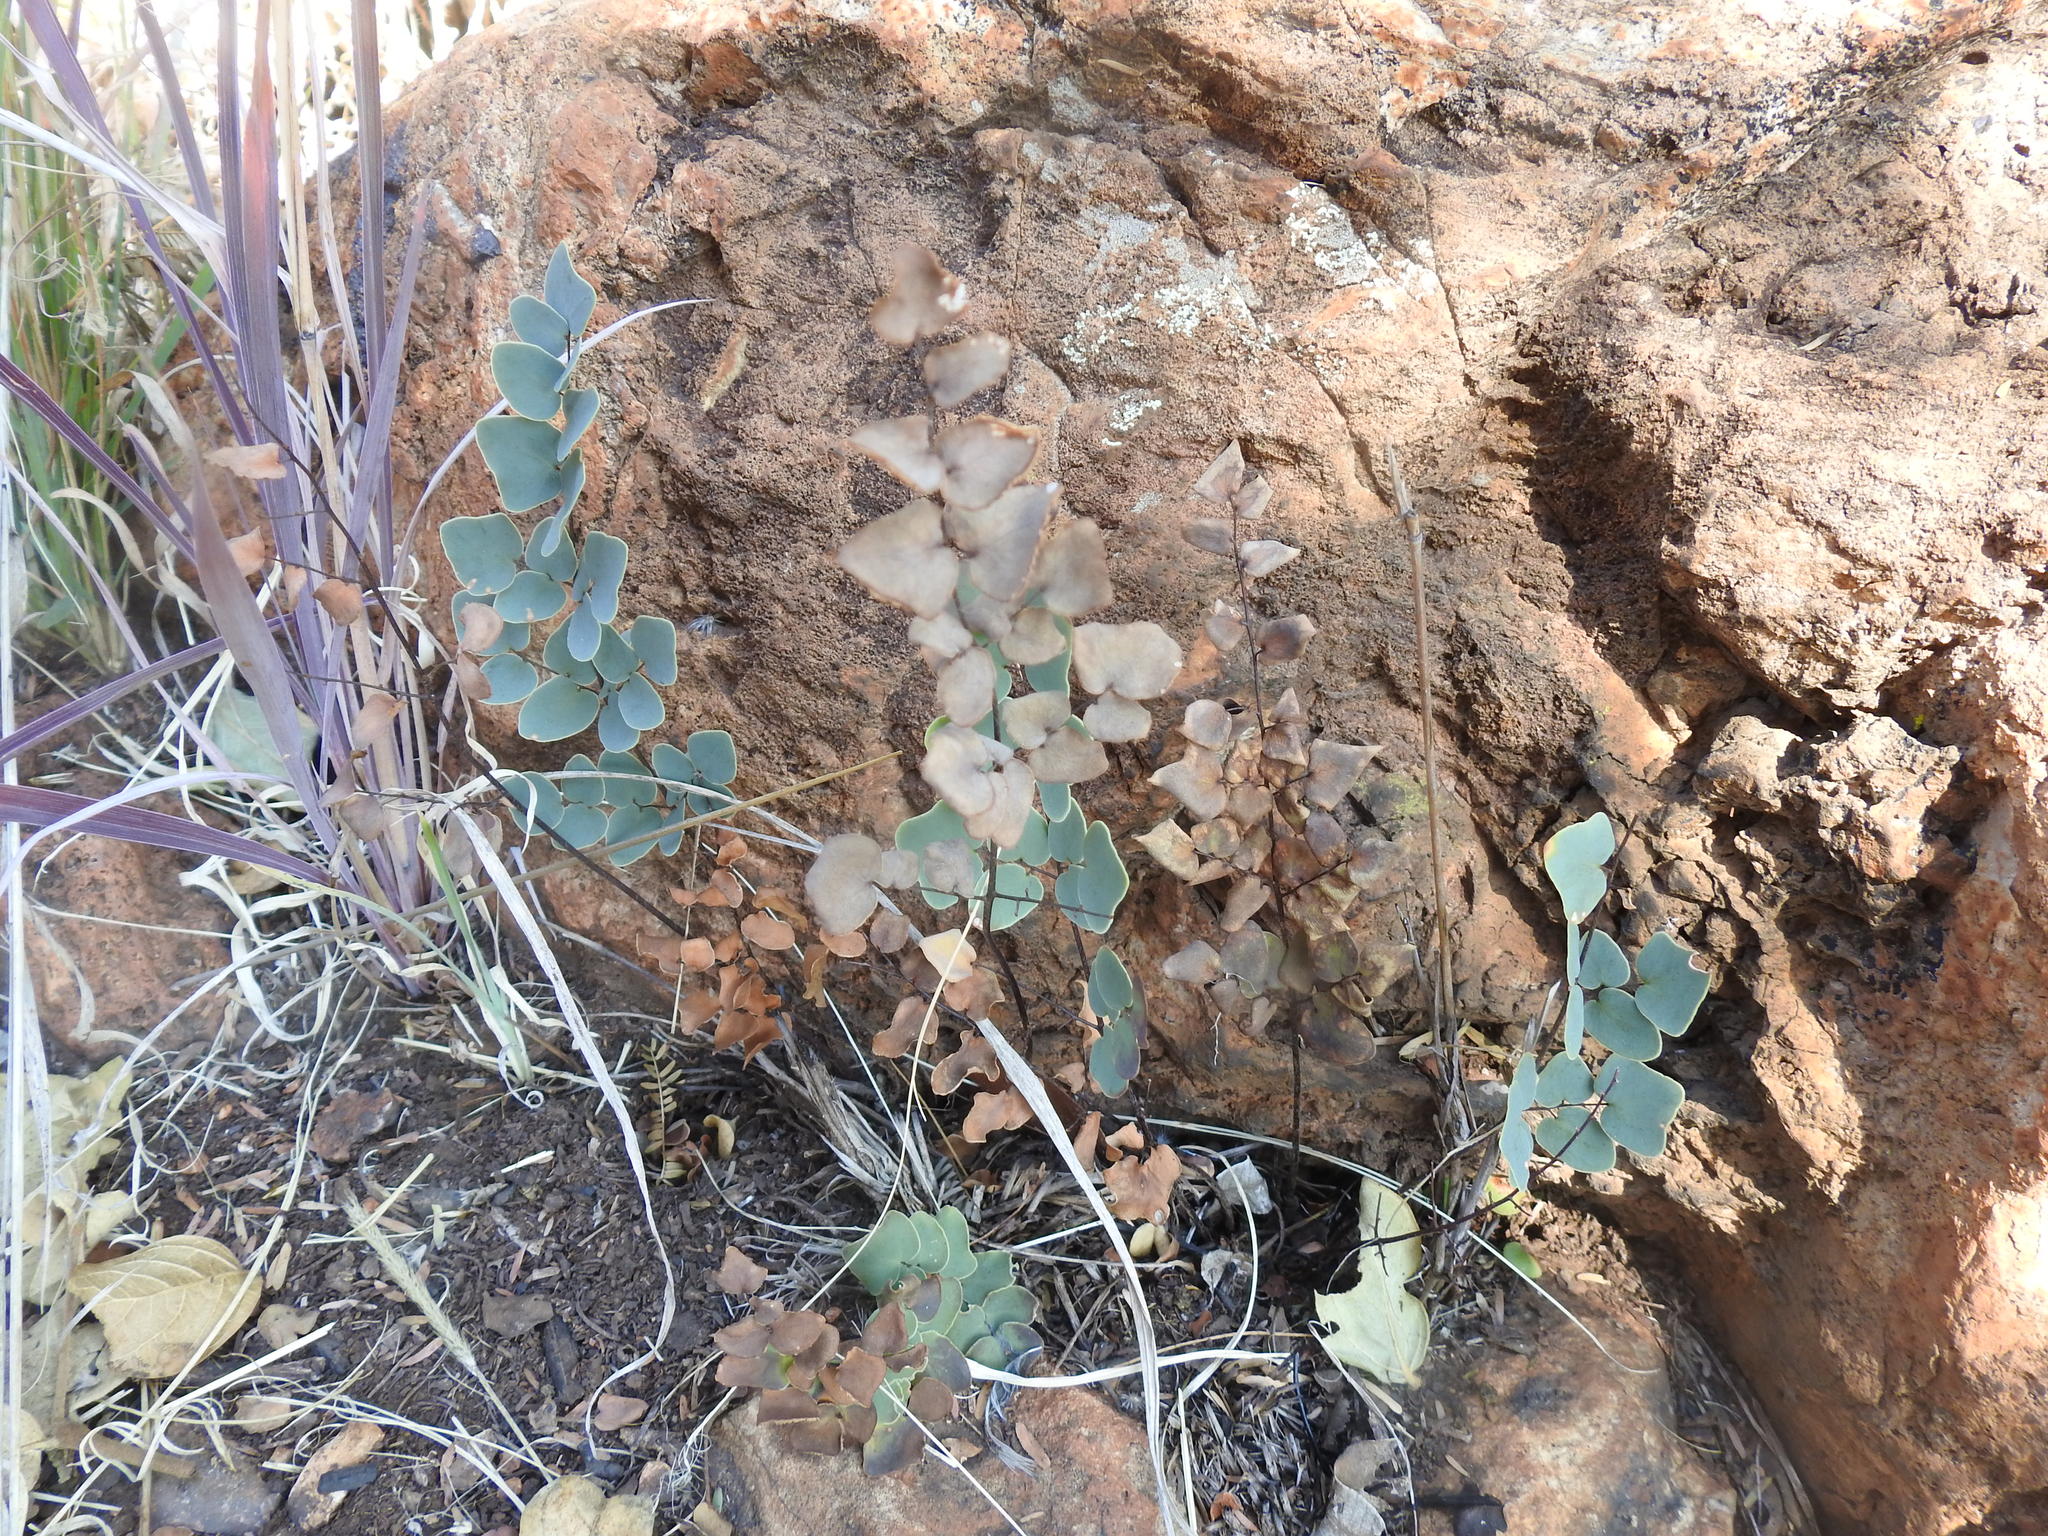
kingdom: Plantae
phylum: Tracheophyta
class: Polypodiopsida
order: Polypodiales
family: Pteridaceae
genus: Pellaea
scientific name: Pellaea calomelanos
